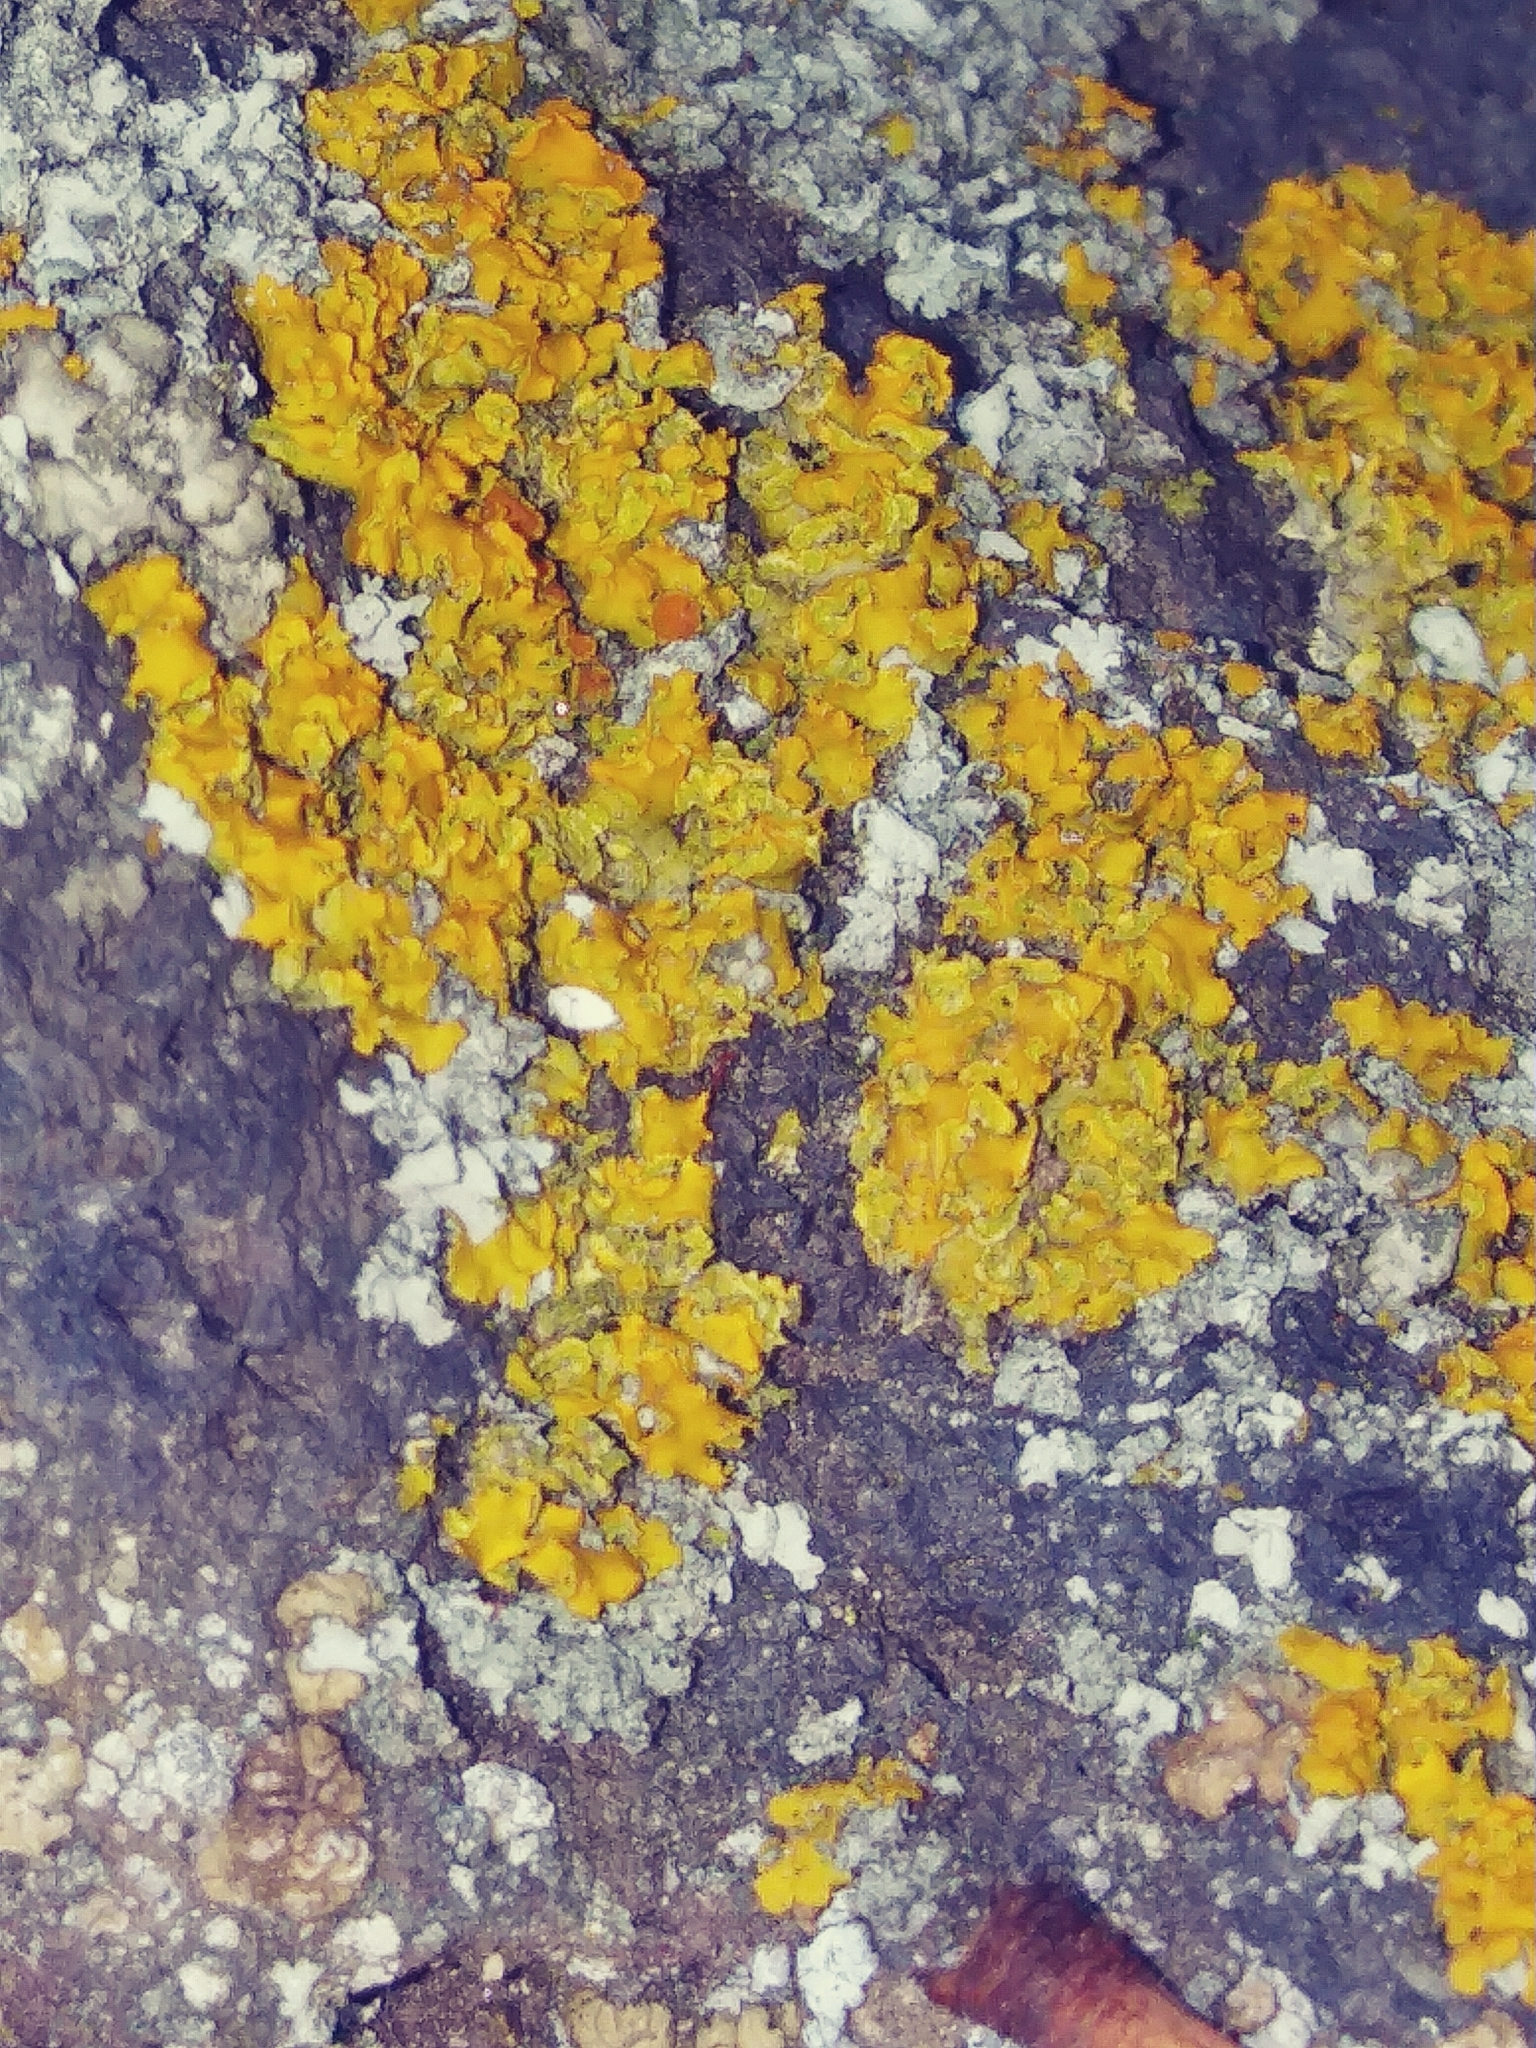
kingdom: Fungi
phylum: Ascomycota
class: Lecanoromycetes
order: Teloschistales
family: Teloschistaceae
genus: Oxneria
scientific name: Oxneria fallax
